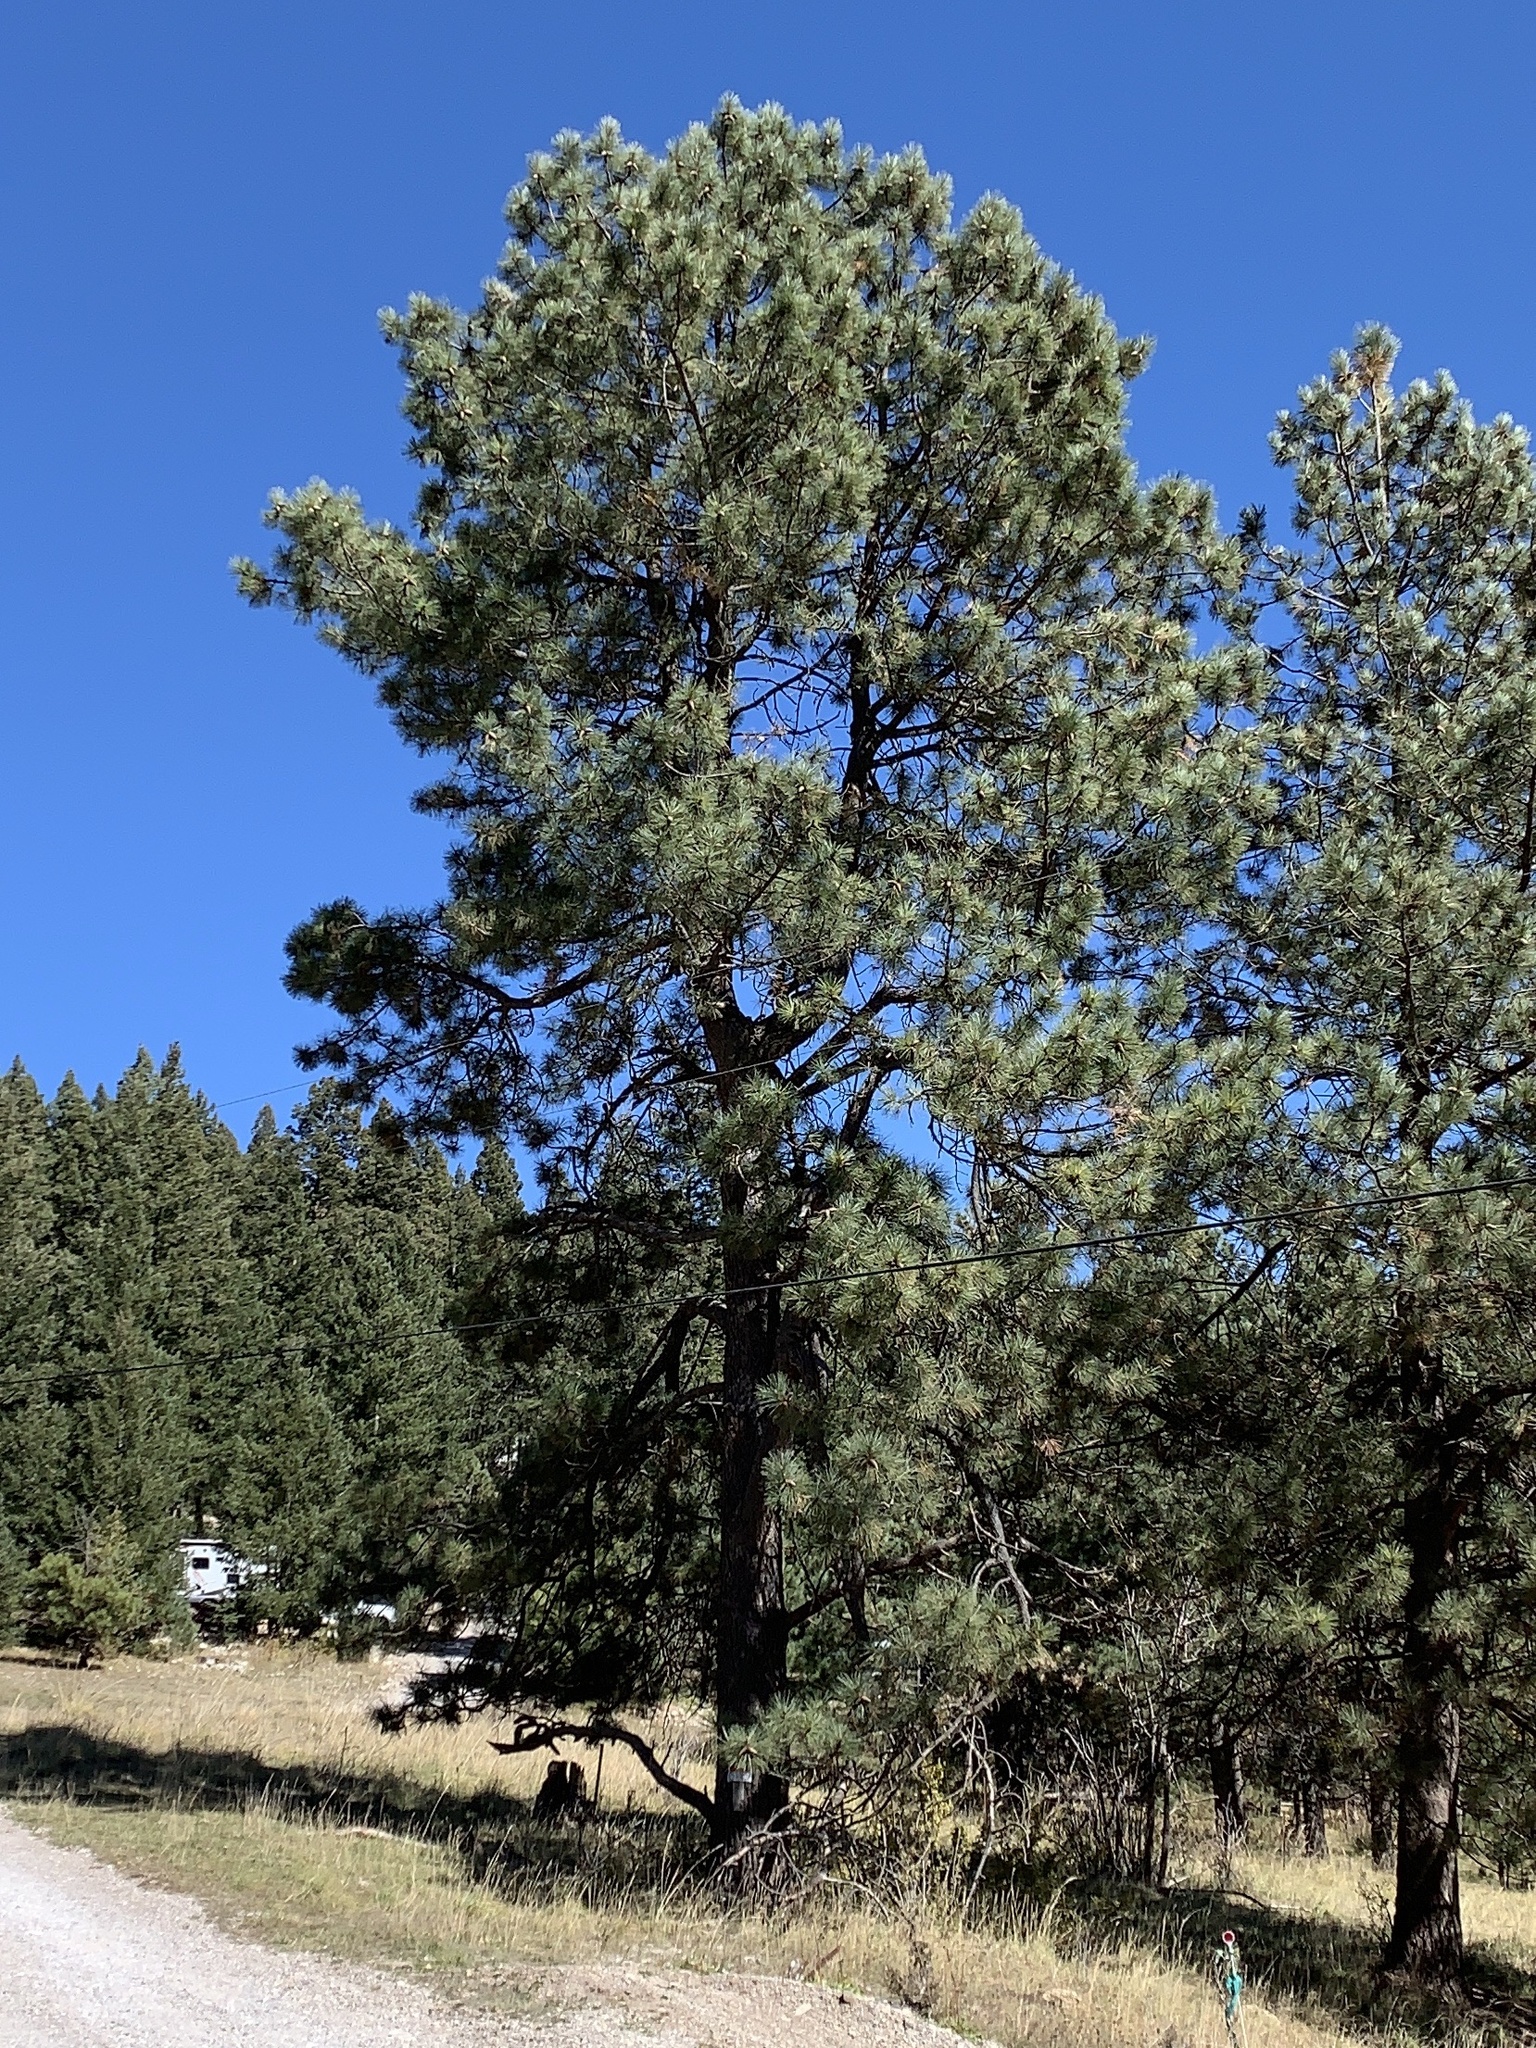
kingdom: Plantae
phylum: Tracheophyta
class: Pinopsida
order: Pinales
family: Pinaceae
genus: Pinus
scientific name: Pinus ponderosa
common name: Western yellow-pine
